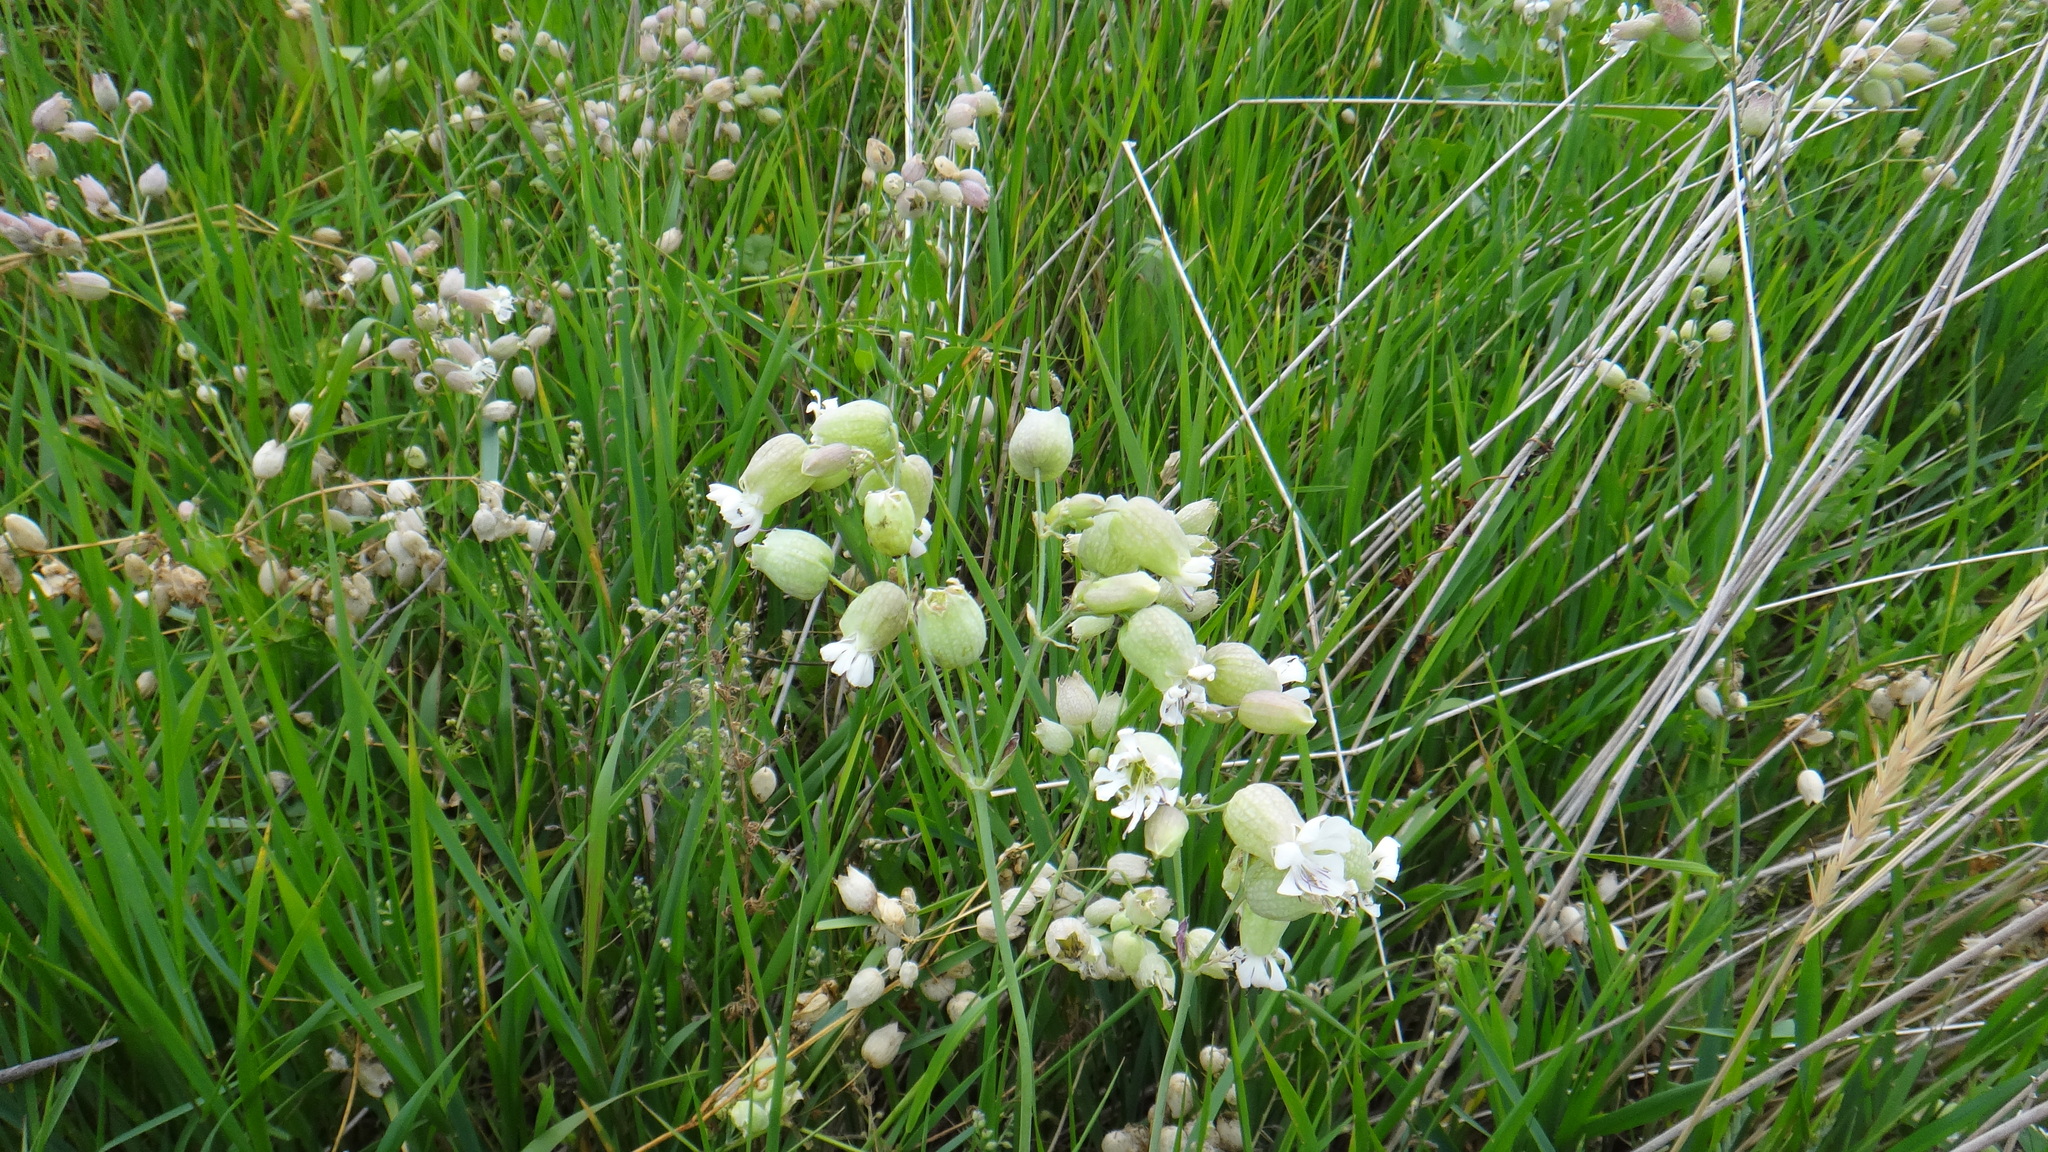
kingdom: Plantae
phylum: Tracheophyta
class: Magnoliopsida
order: Caryophyllales
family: Caryophyllaceae
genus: Silene
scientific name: Silene vulgaris
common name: Bladder campion
